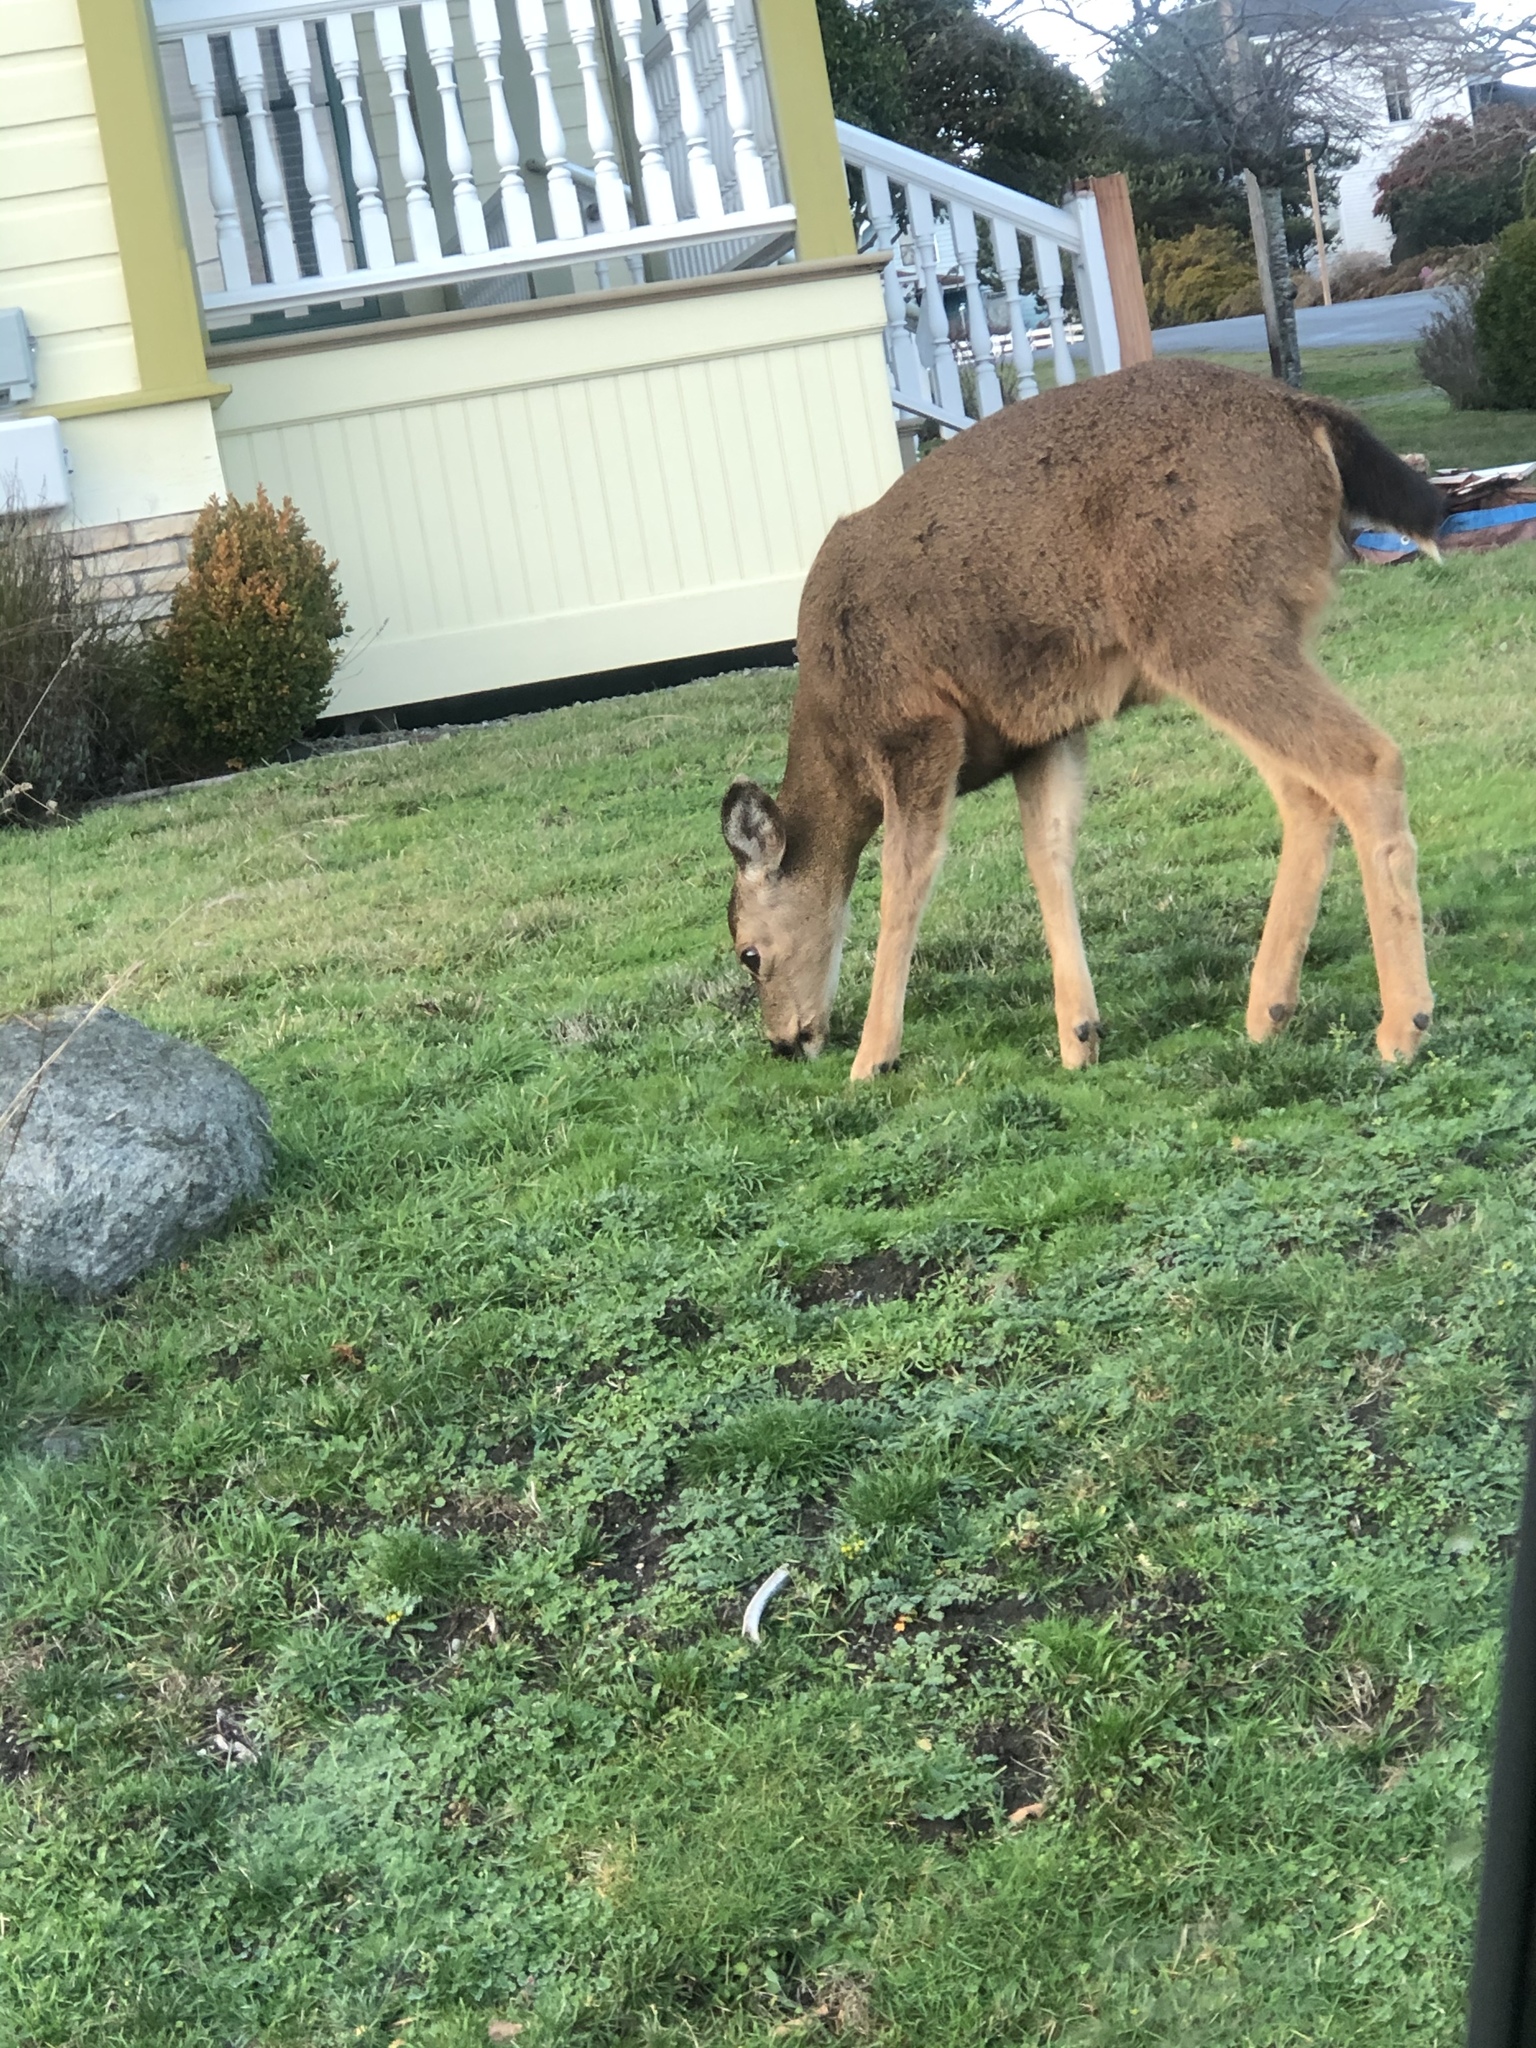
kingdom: Animalia
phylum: Chordata
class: Mammalia
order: Artiodactyla
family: Cervidae
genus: Odocoileus
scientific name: Odocoileus hemionus
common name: Mule deer
